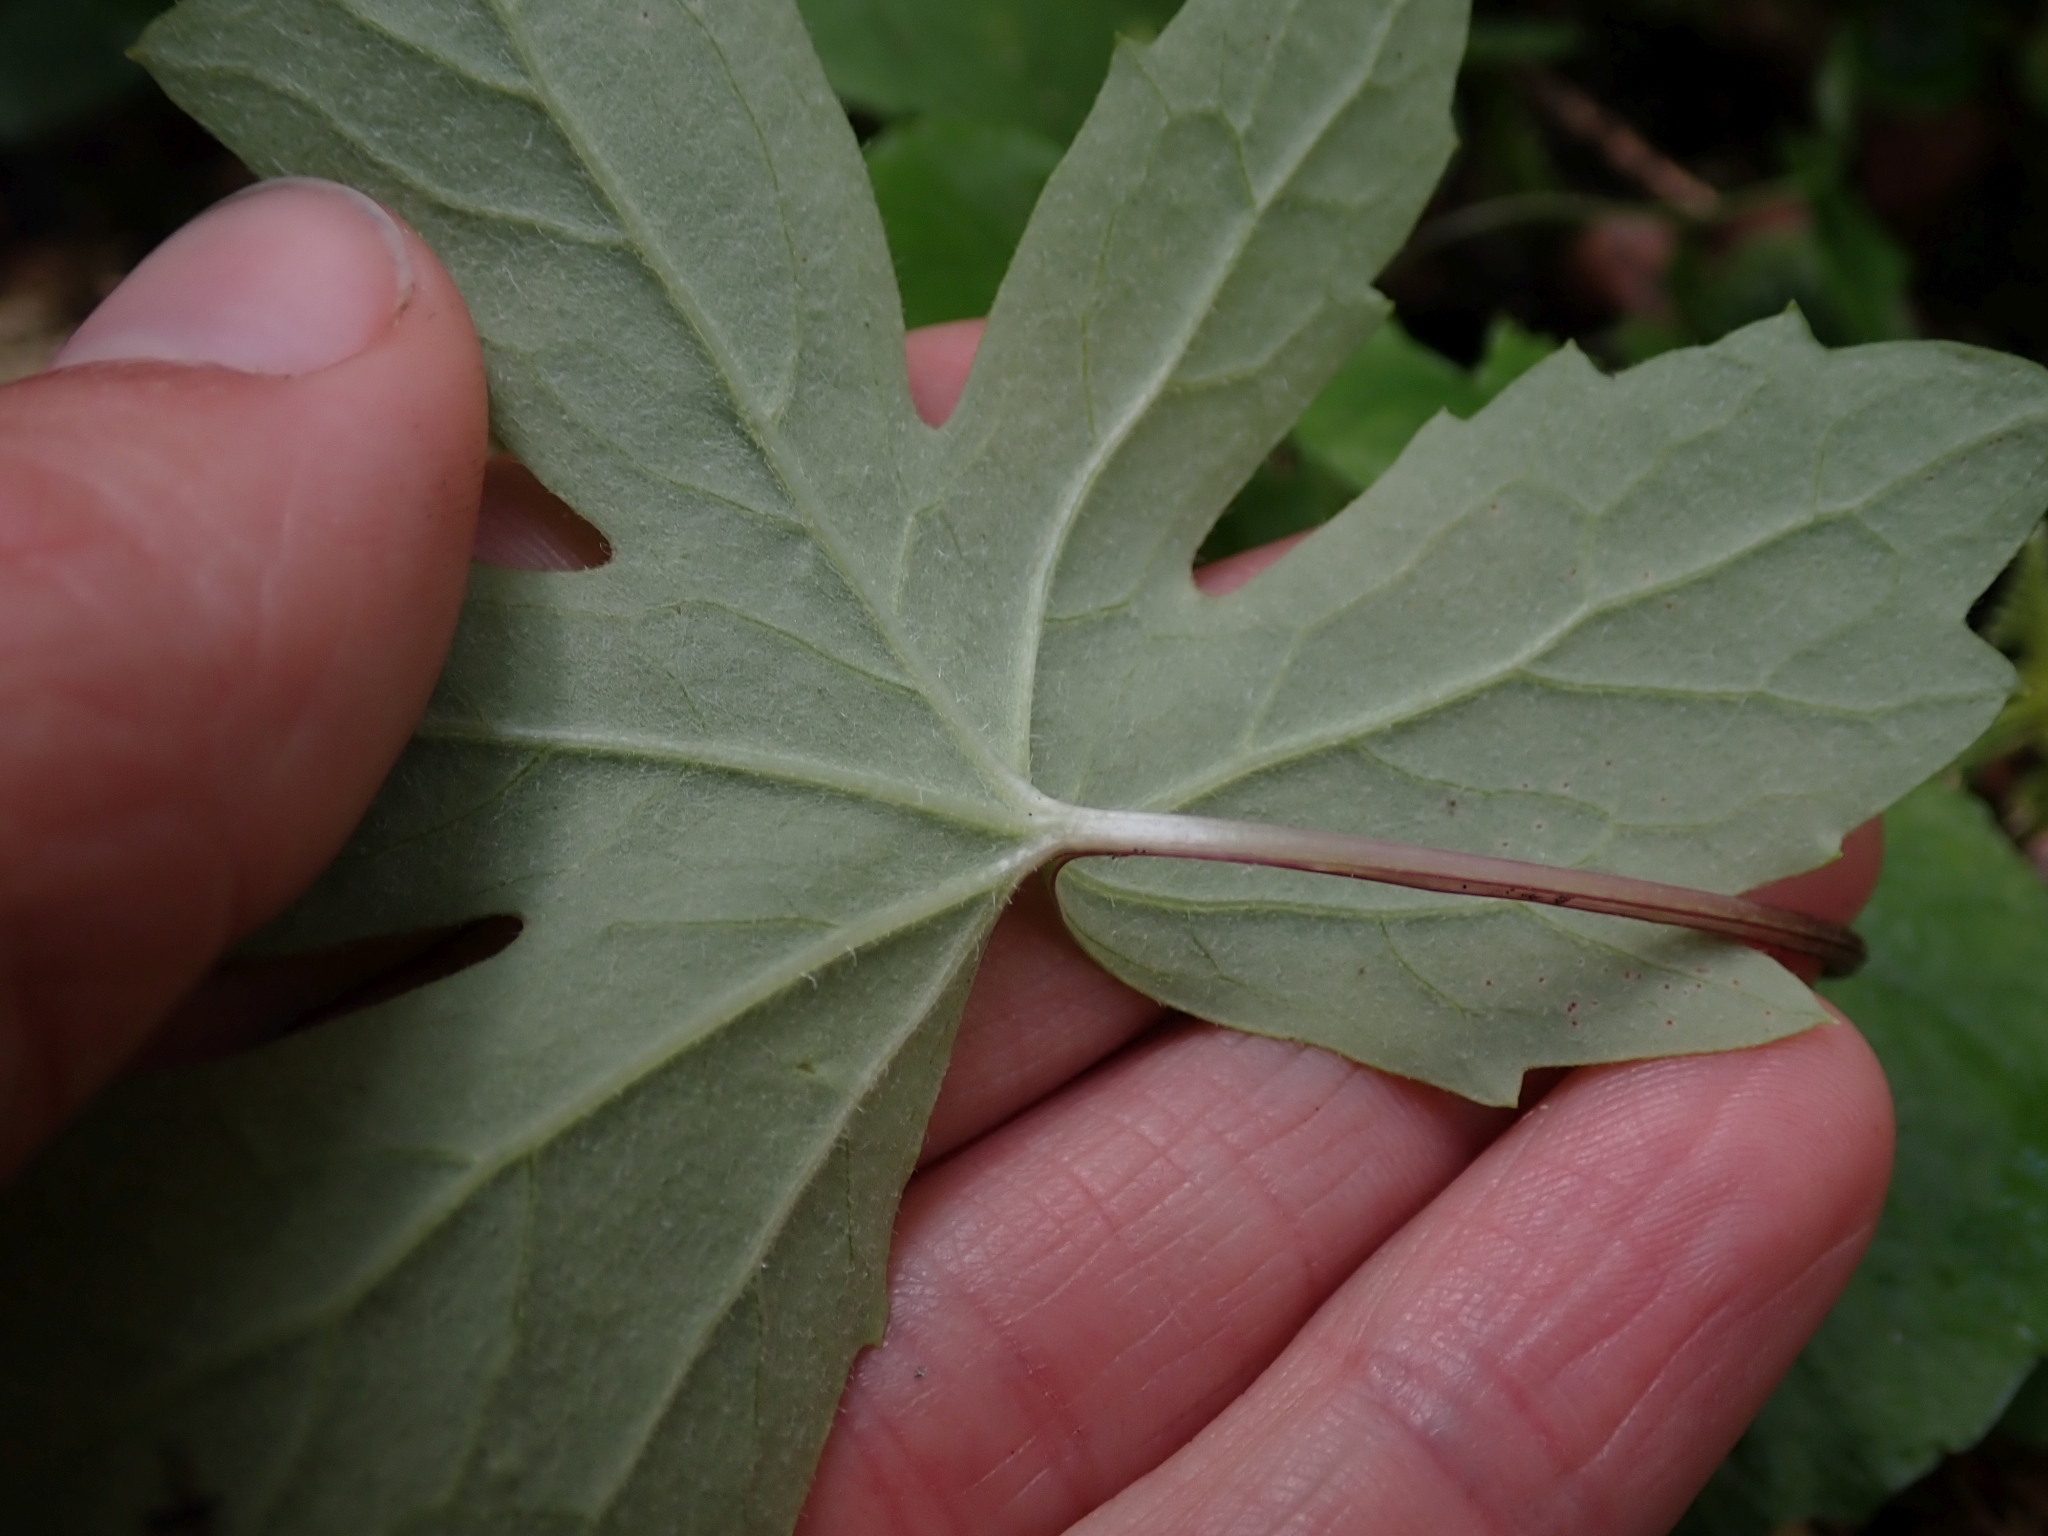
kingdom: Plantae
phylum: Tracheophyta
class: Magnoliopsida
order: Asterales
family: Asteraceae
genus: Petasites
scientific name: Petasites frigidus
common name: Arctic butterbur
